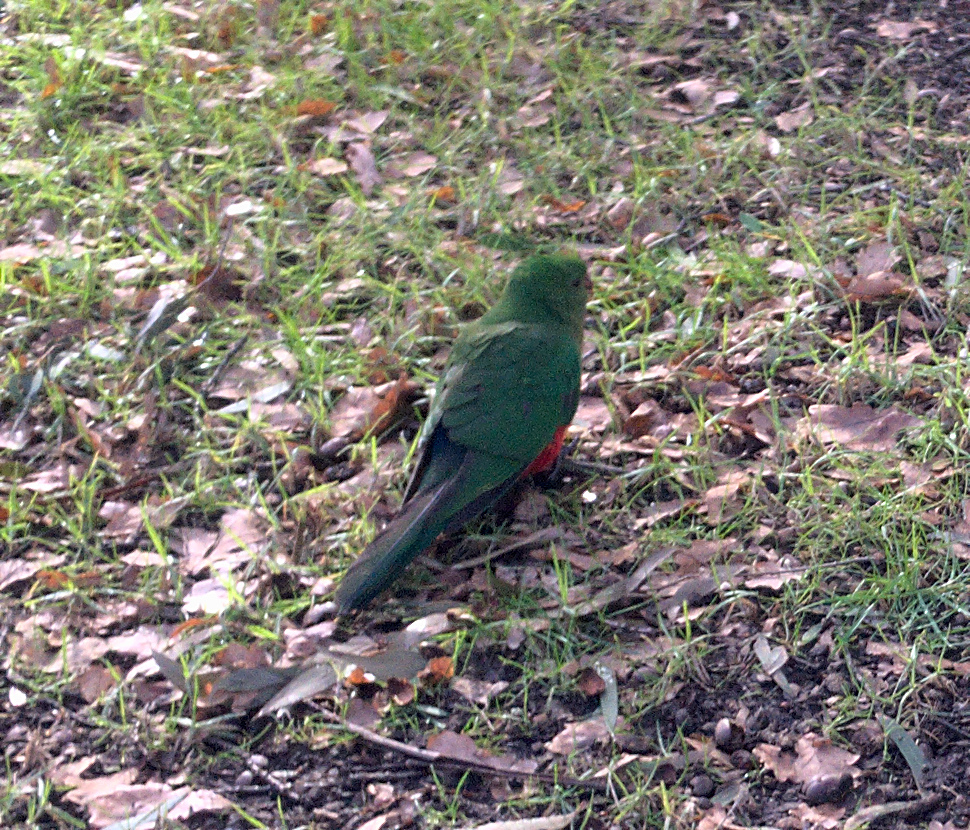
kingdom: Animalia
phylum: Chordata
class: Aves
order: Psittaciformes
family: Psittacidae
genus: Alisterus
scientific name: Alisterus scapularis
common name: Australian king parrot
